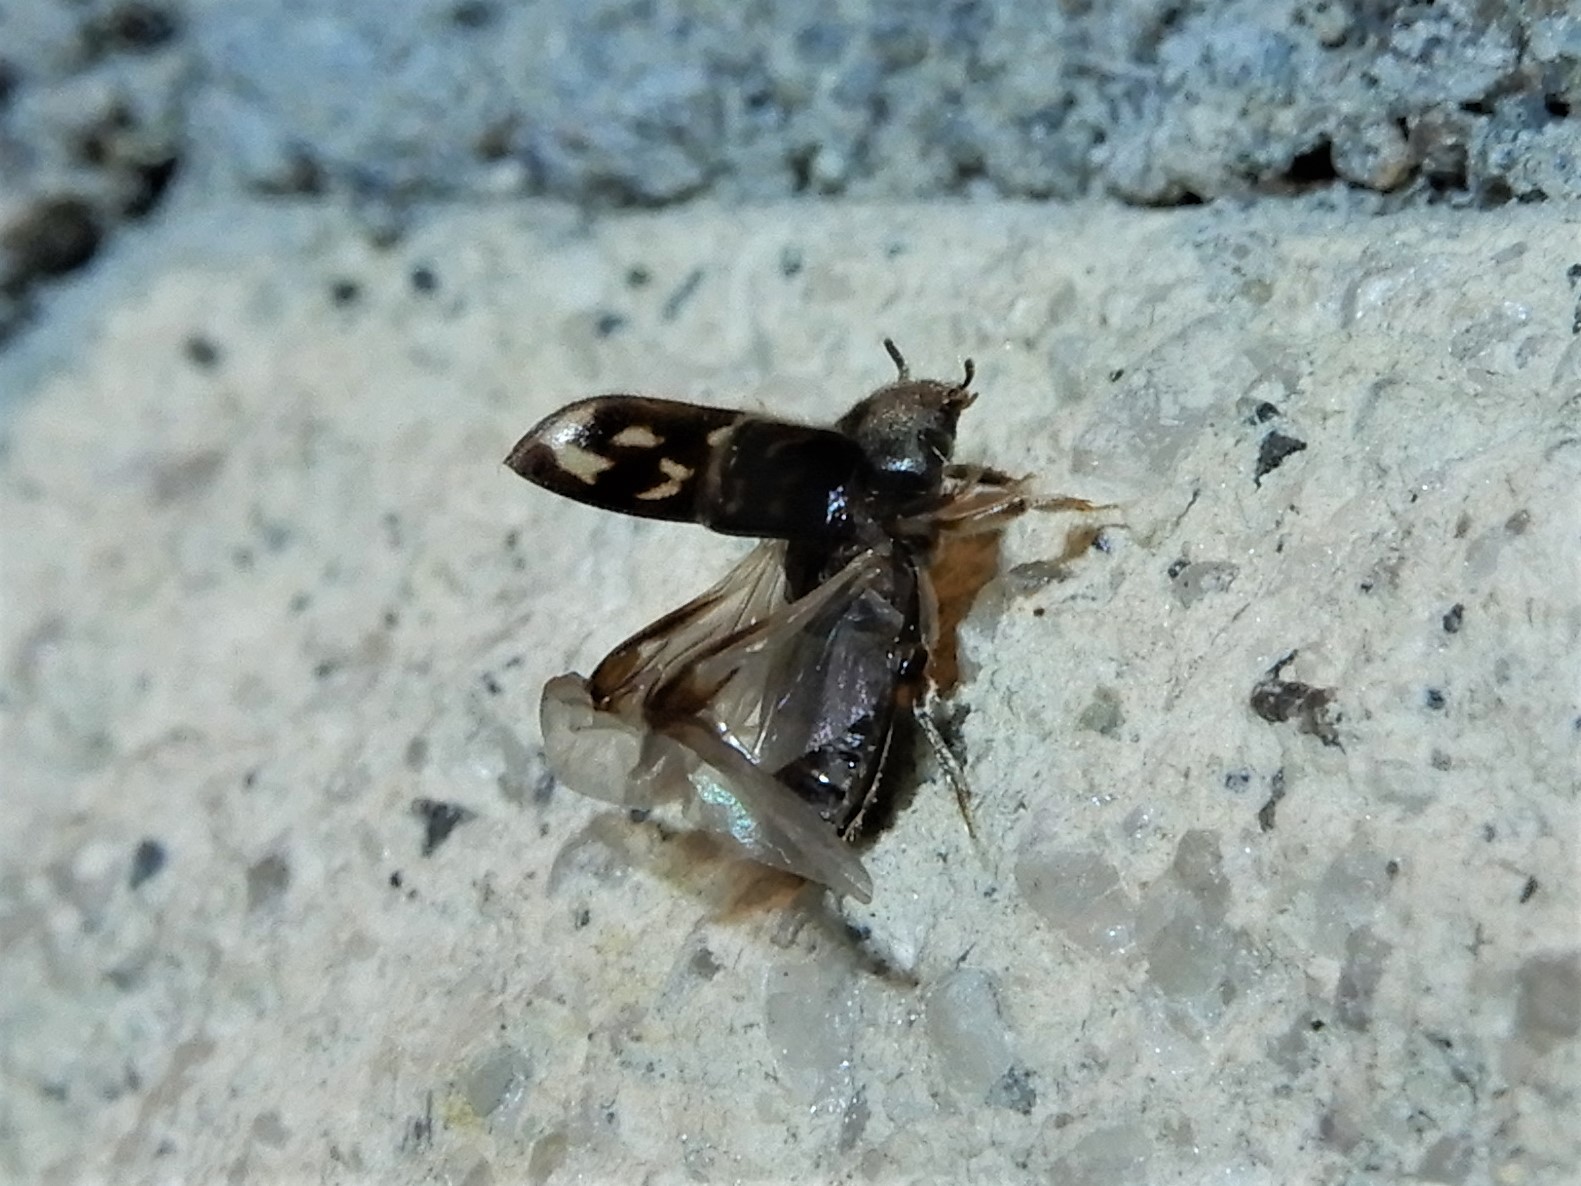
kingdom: Animalia
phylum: Arthropoda
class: Insecta
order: Coleoptera
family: Heteroceridae
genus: Heterocerus
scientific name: Heterocerus novaeselandiae
